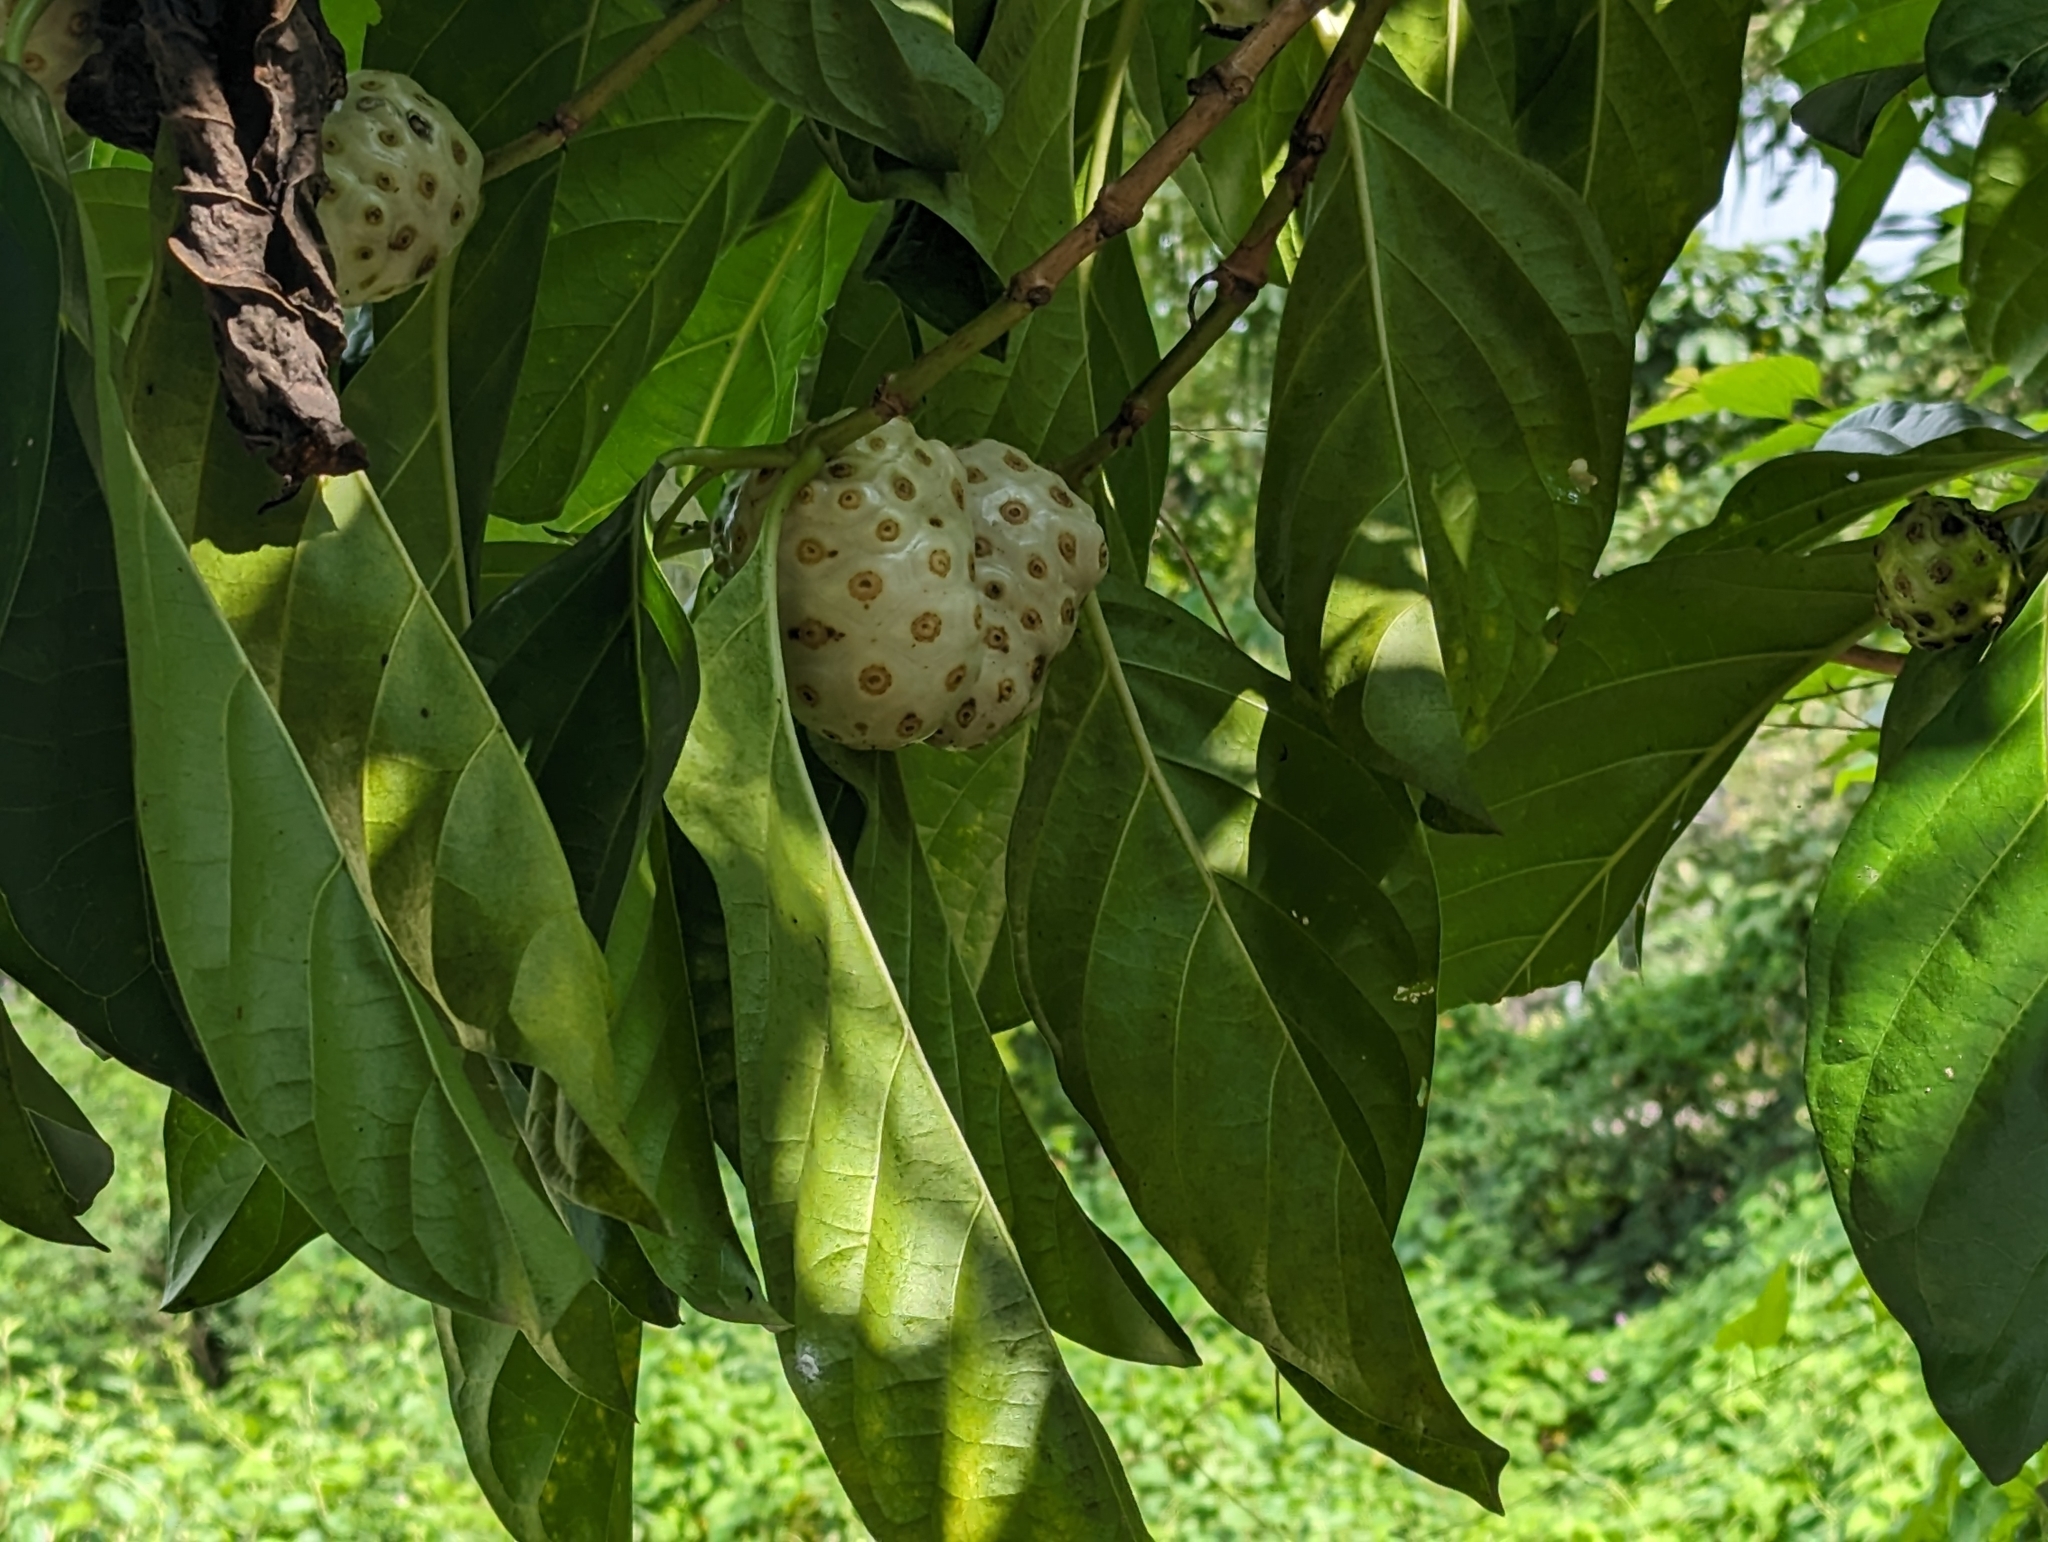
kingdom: Plantae
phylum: Tracheophyta
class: Magnoliopsida
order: Gentianales
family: Rubiaceae
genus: Morinda
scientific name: Morinda citrifolia
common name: Indian-mulberry
